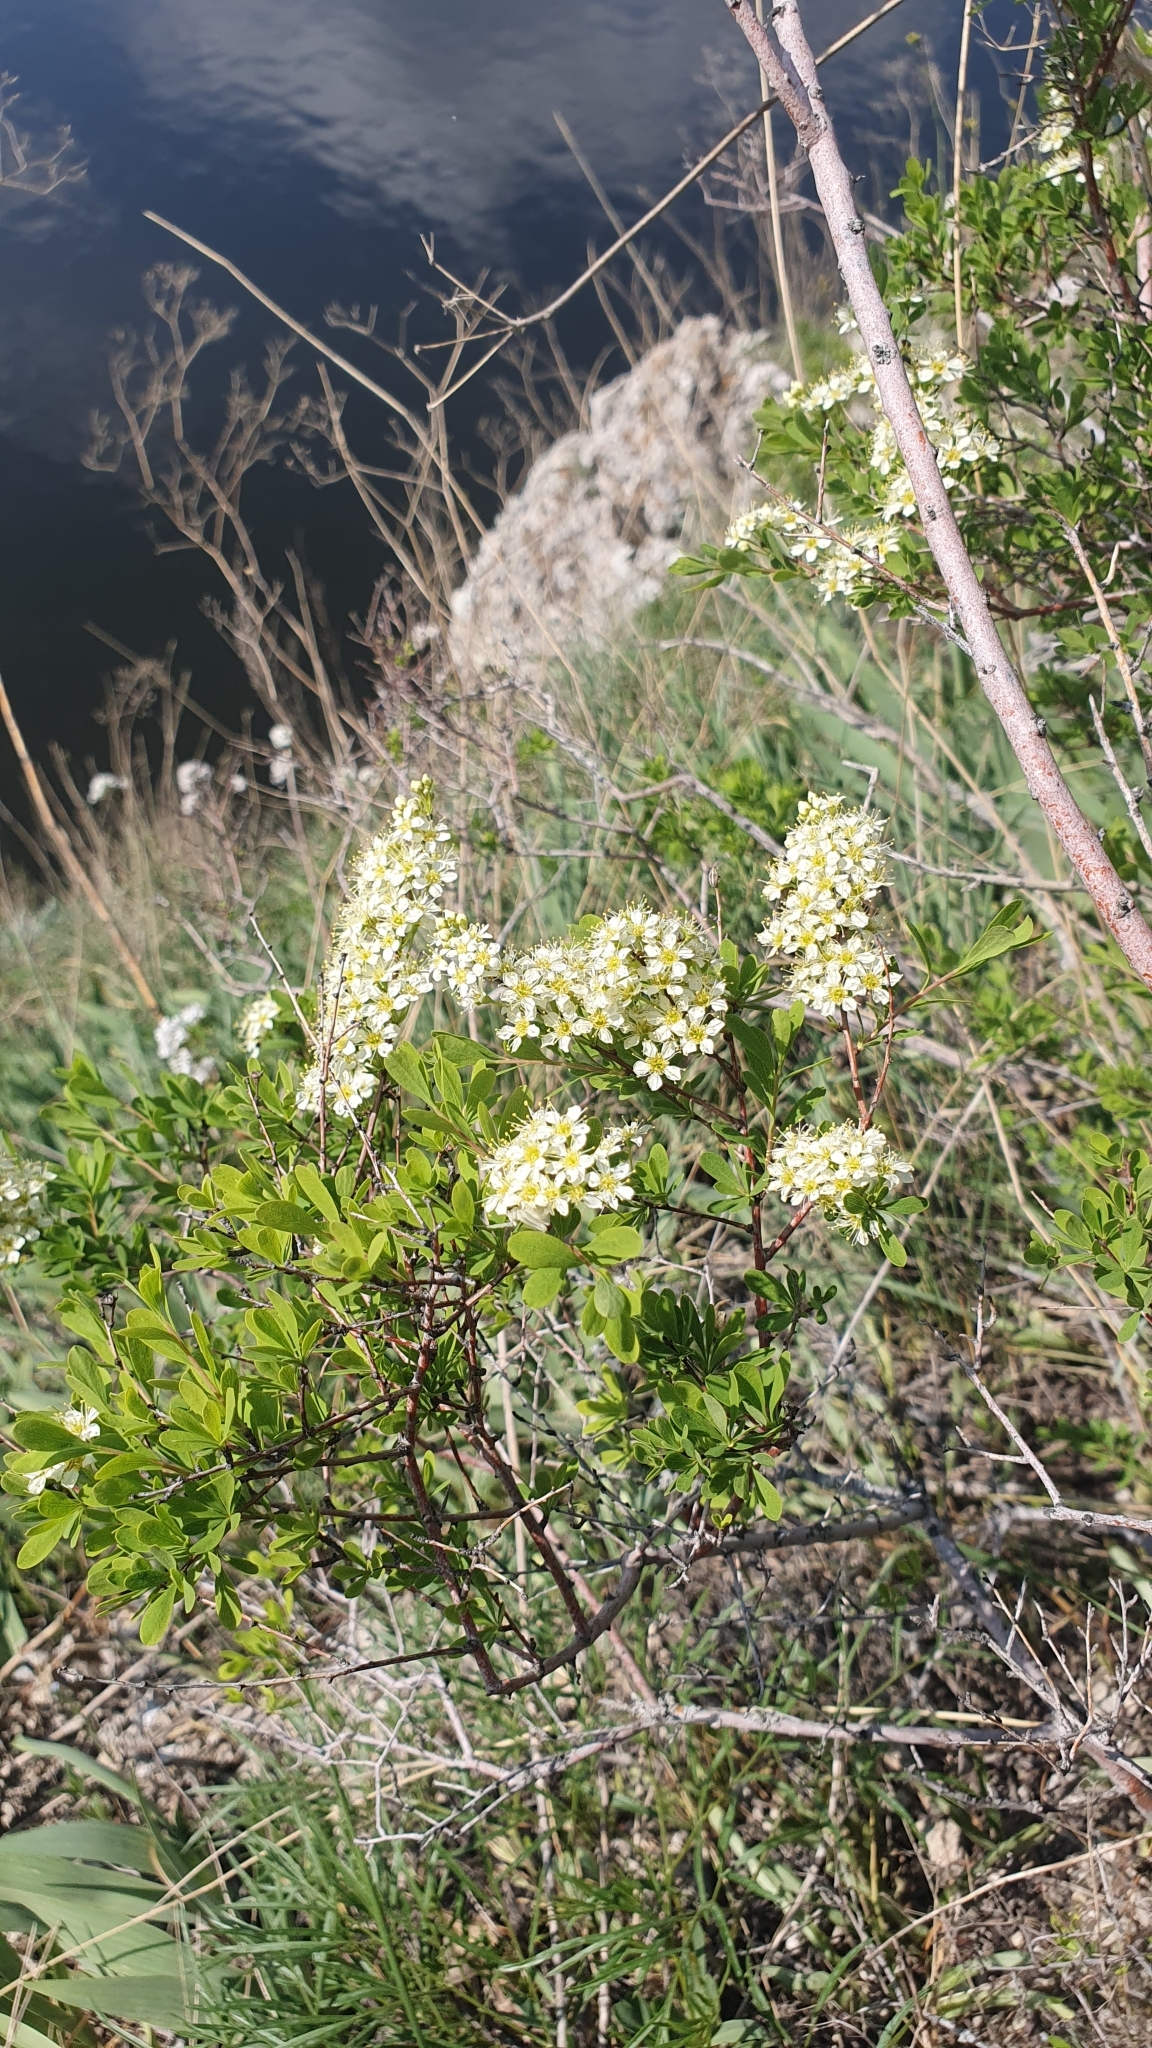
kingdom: Plantae
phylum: Tracheophyta
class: Magnoliopsida
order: Rosales
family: Rosaceae
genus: Spiraea
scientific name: Spiraea hypericifolia
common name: Iberian spirea
